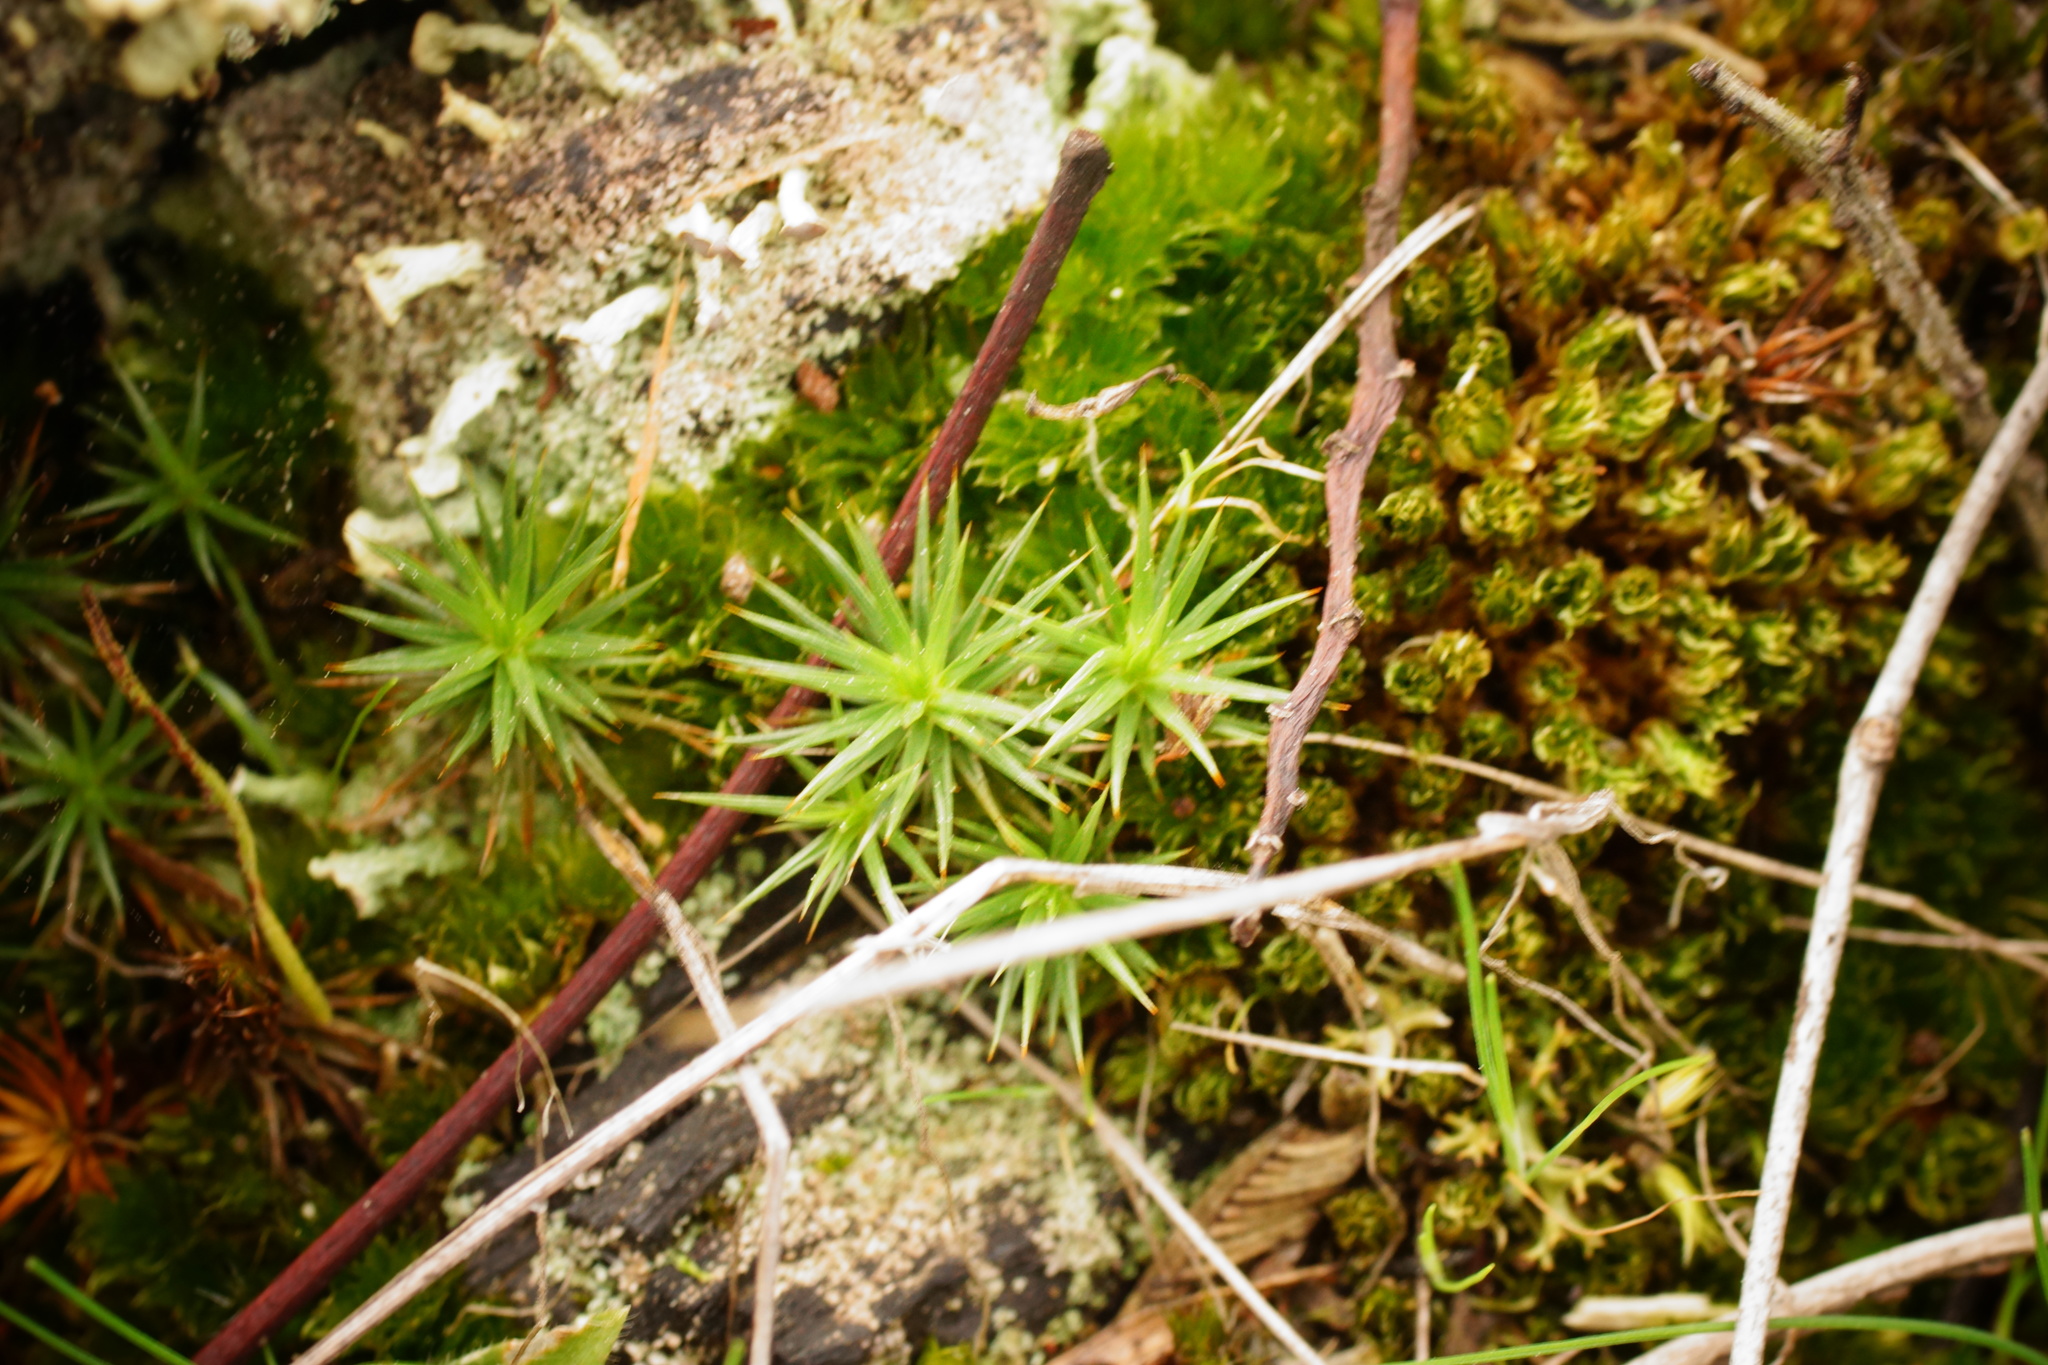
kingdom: Plantae
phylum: Bryophyta
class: Polytrichopsida
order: Polytrichales
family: Polytrichaceae
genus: Polytrichum
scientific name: Polytrichum juniperinum
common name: Juniper haircap moss
